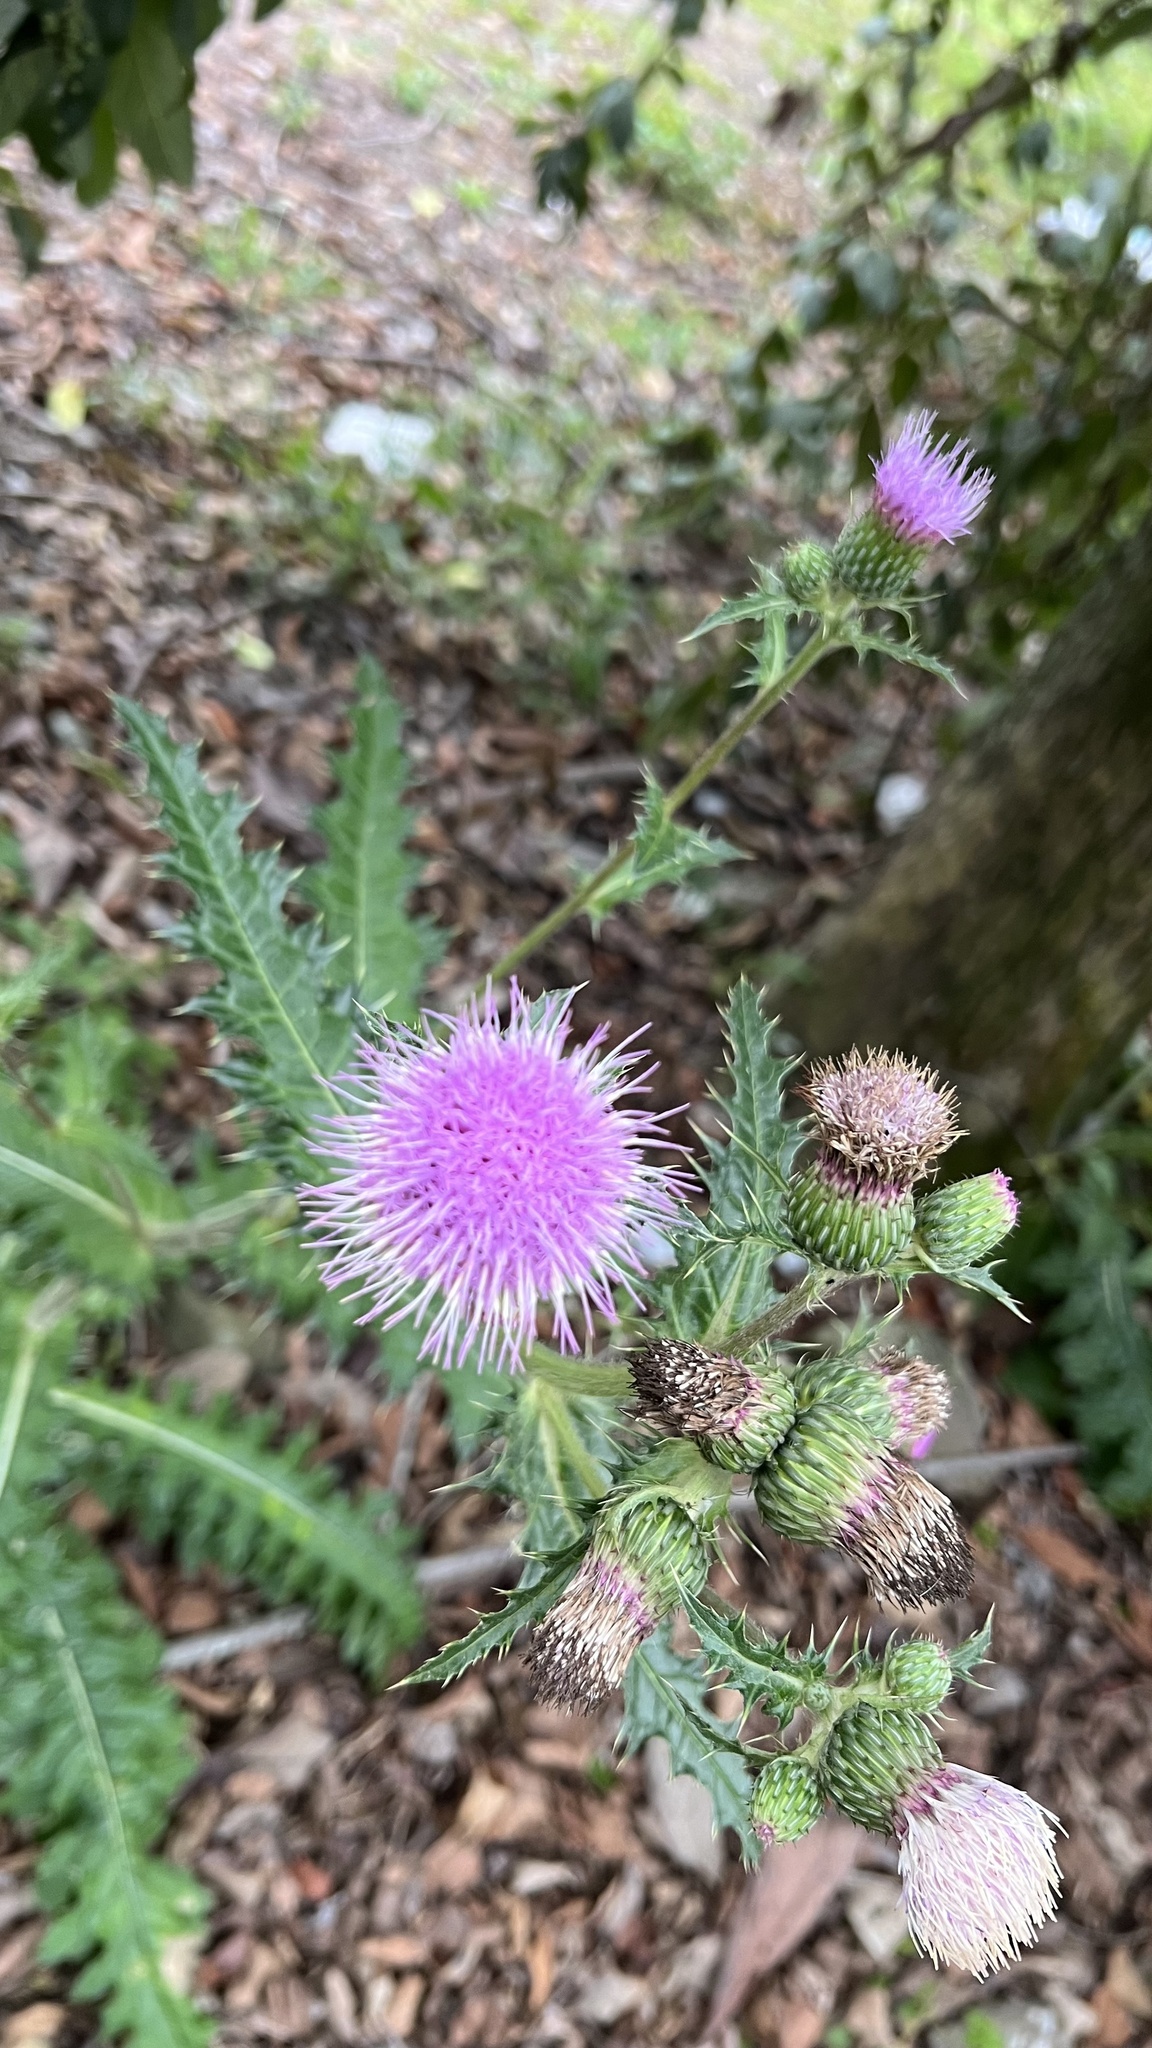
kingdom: Plantae
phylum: Tracheophyta
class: Magnoliopsida
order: Asterales
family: Asteraceae
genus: Cirsium
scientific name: Cirsium japonicum
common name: Japanese thistle
